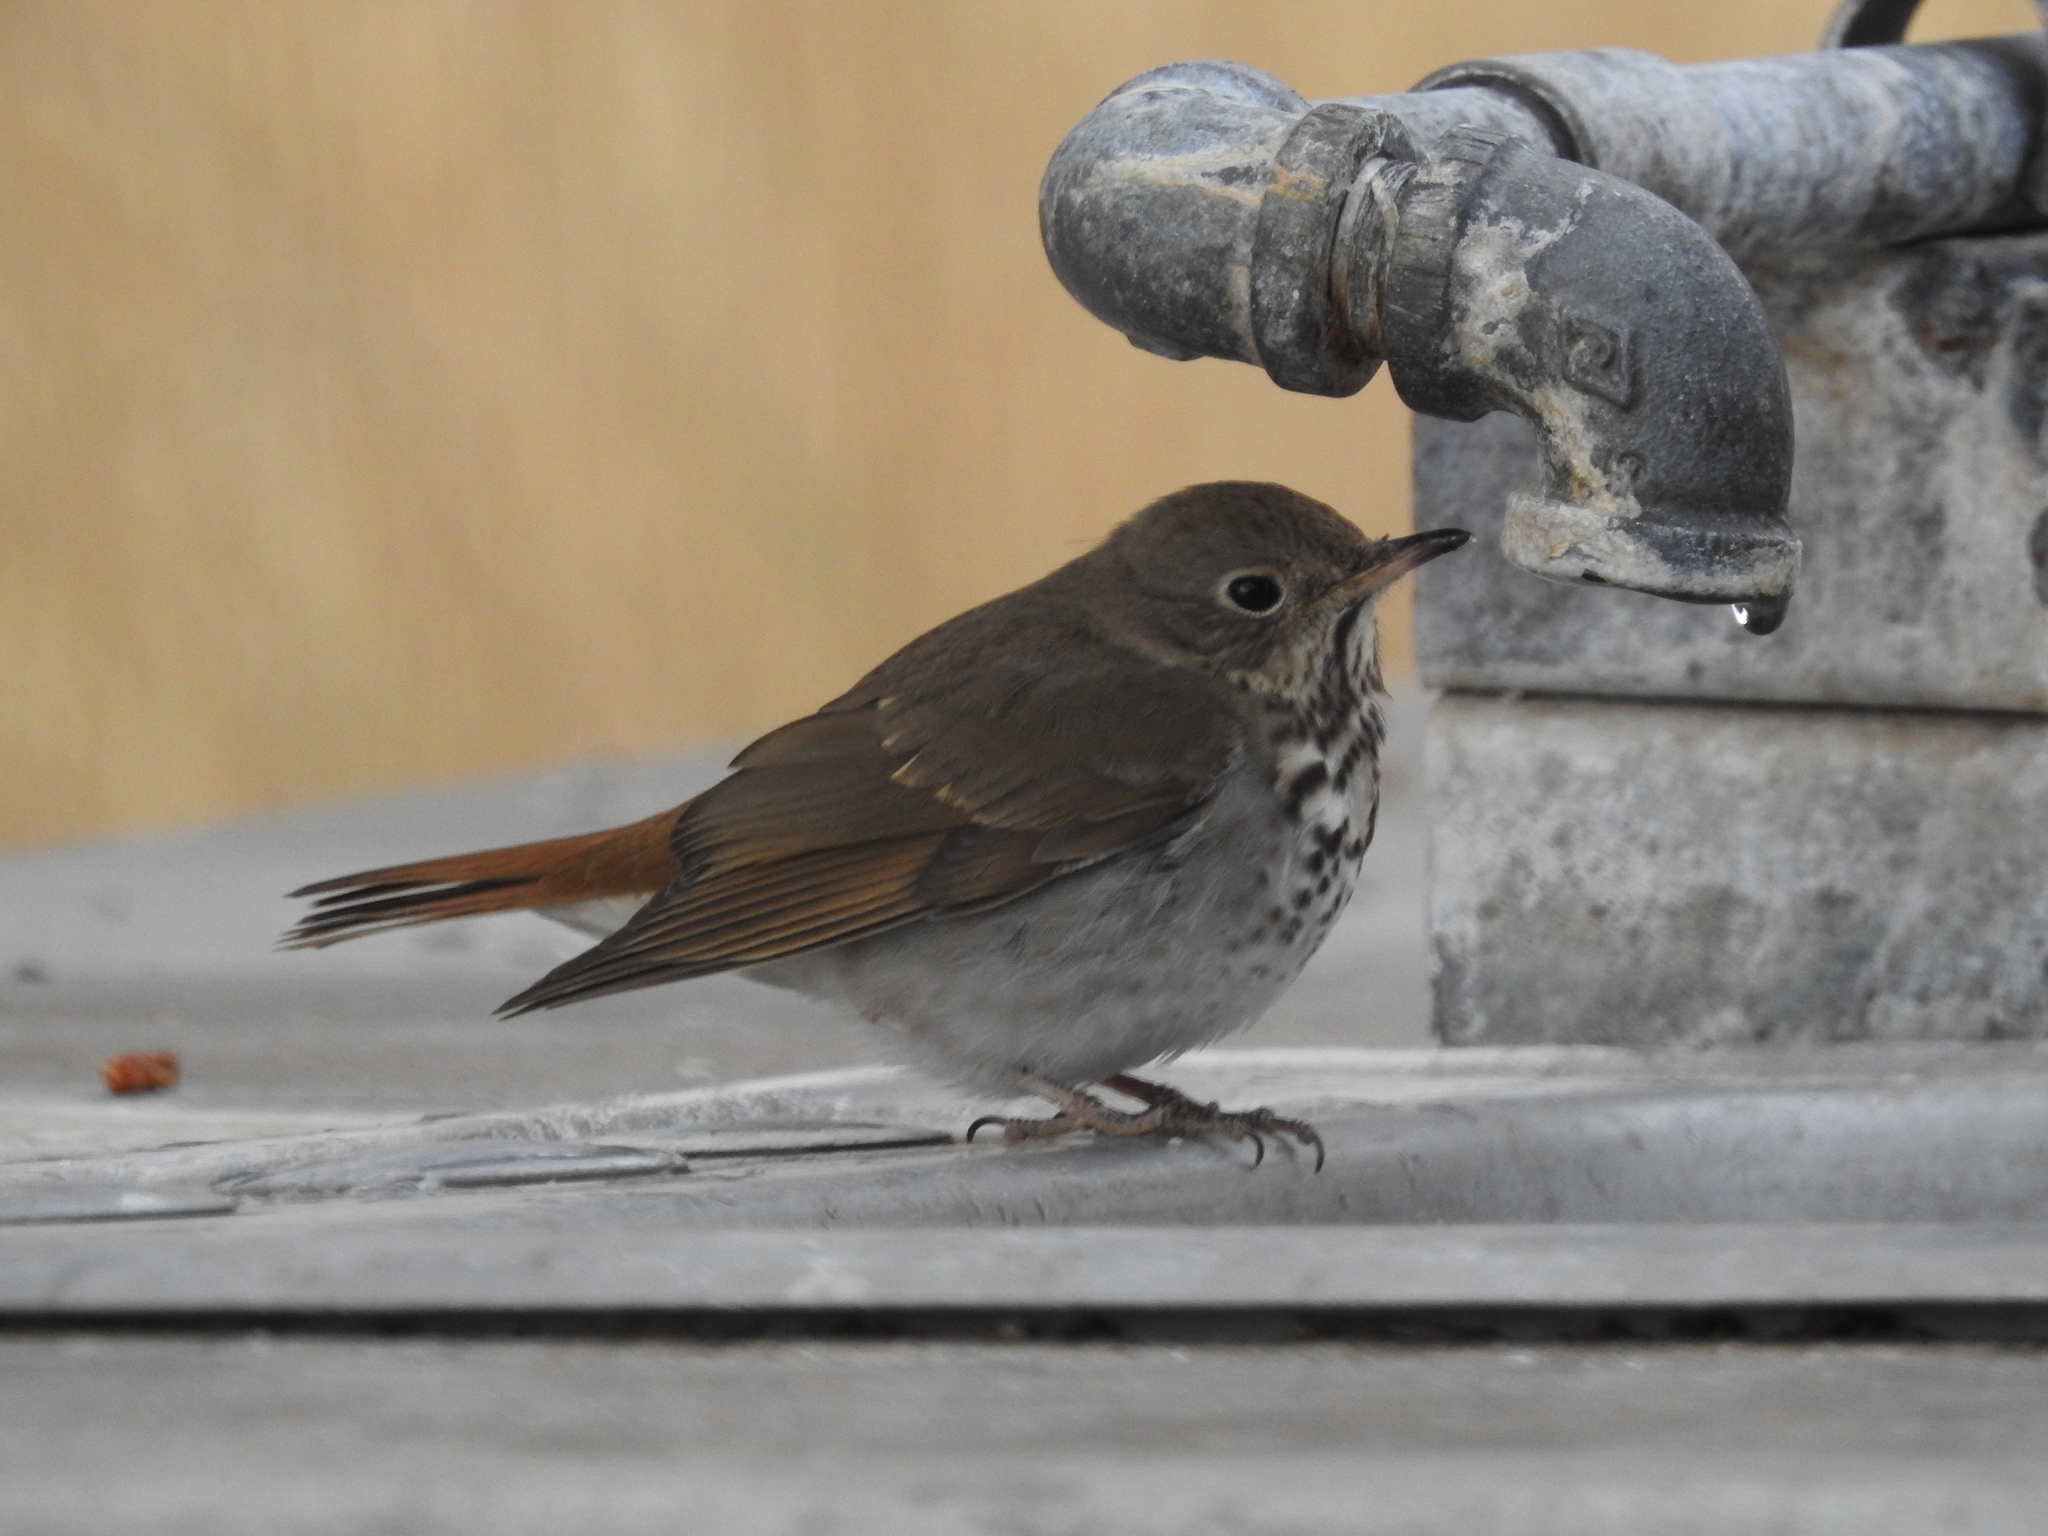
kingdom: Animalia
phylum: Chordata
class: Aves
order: Passeriformes
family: Turdidae
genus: Catharus
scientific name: Catharus guttatus
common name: Hermit thrush
